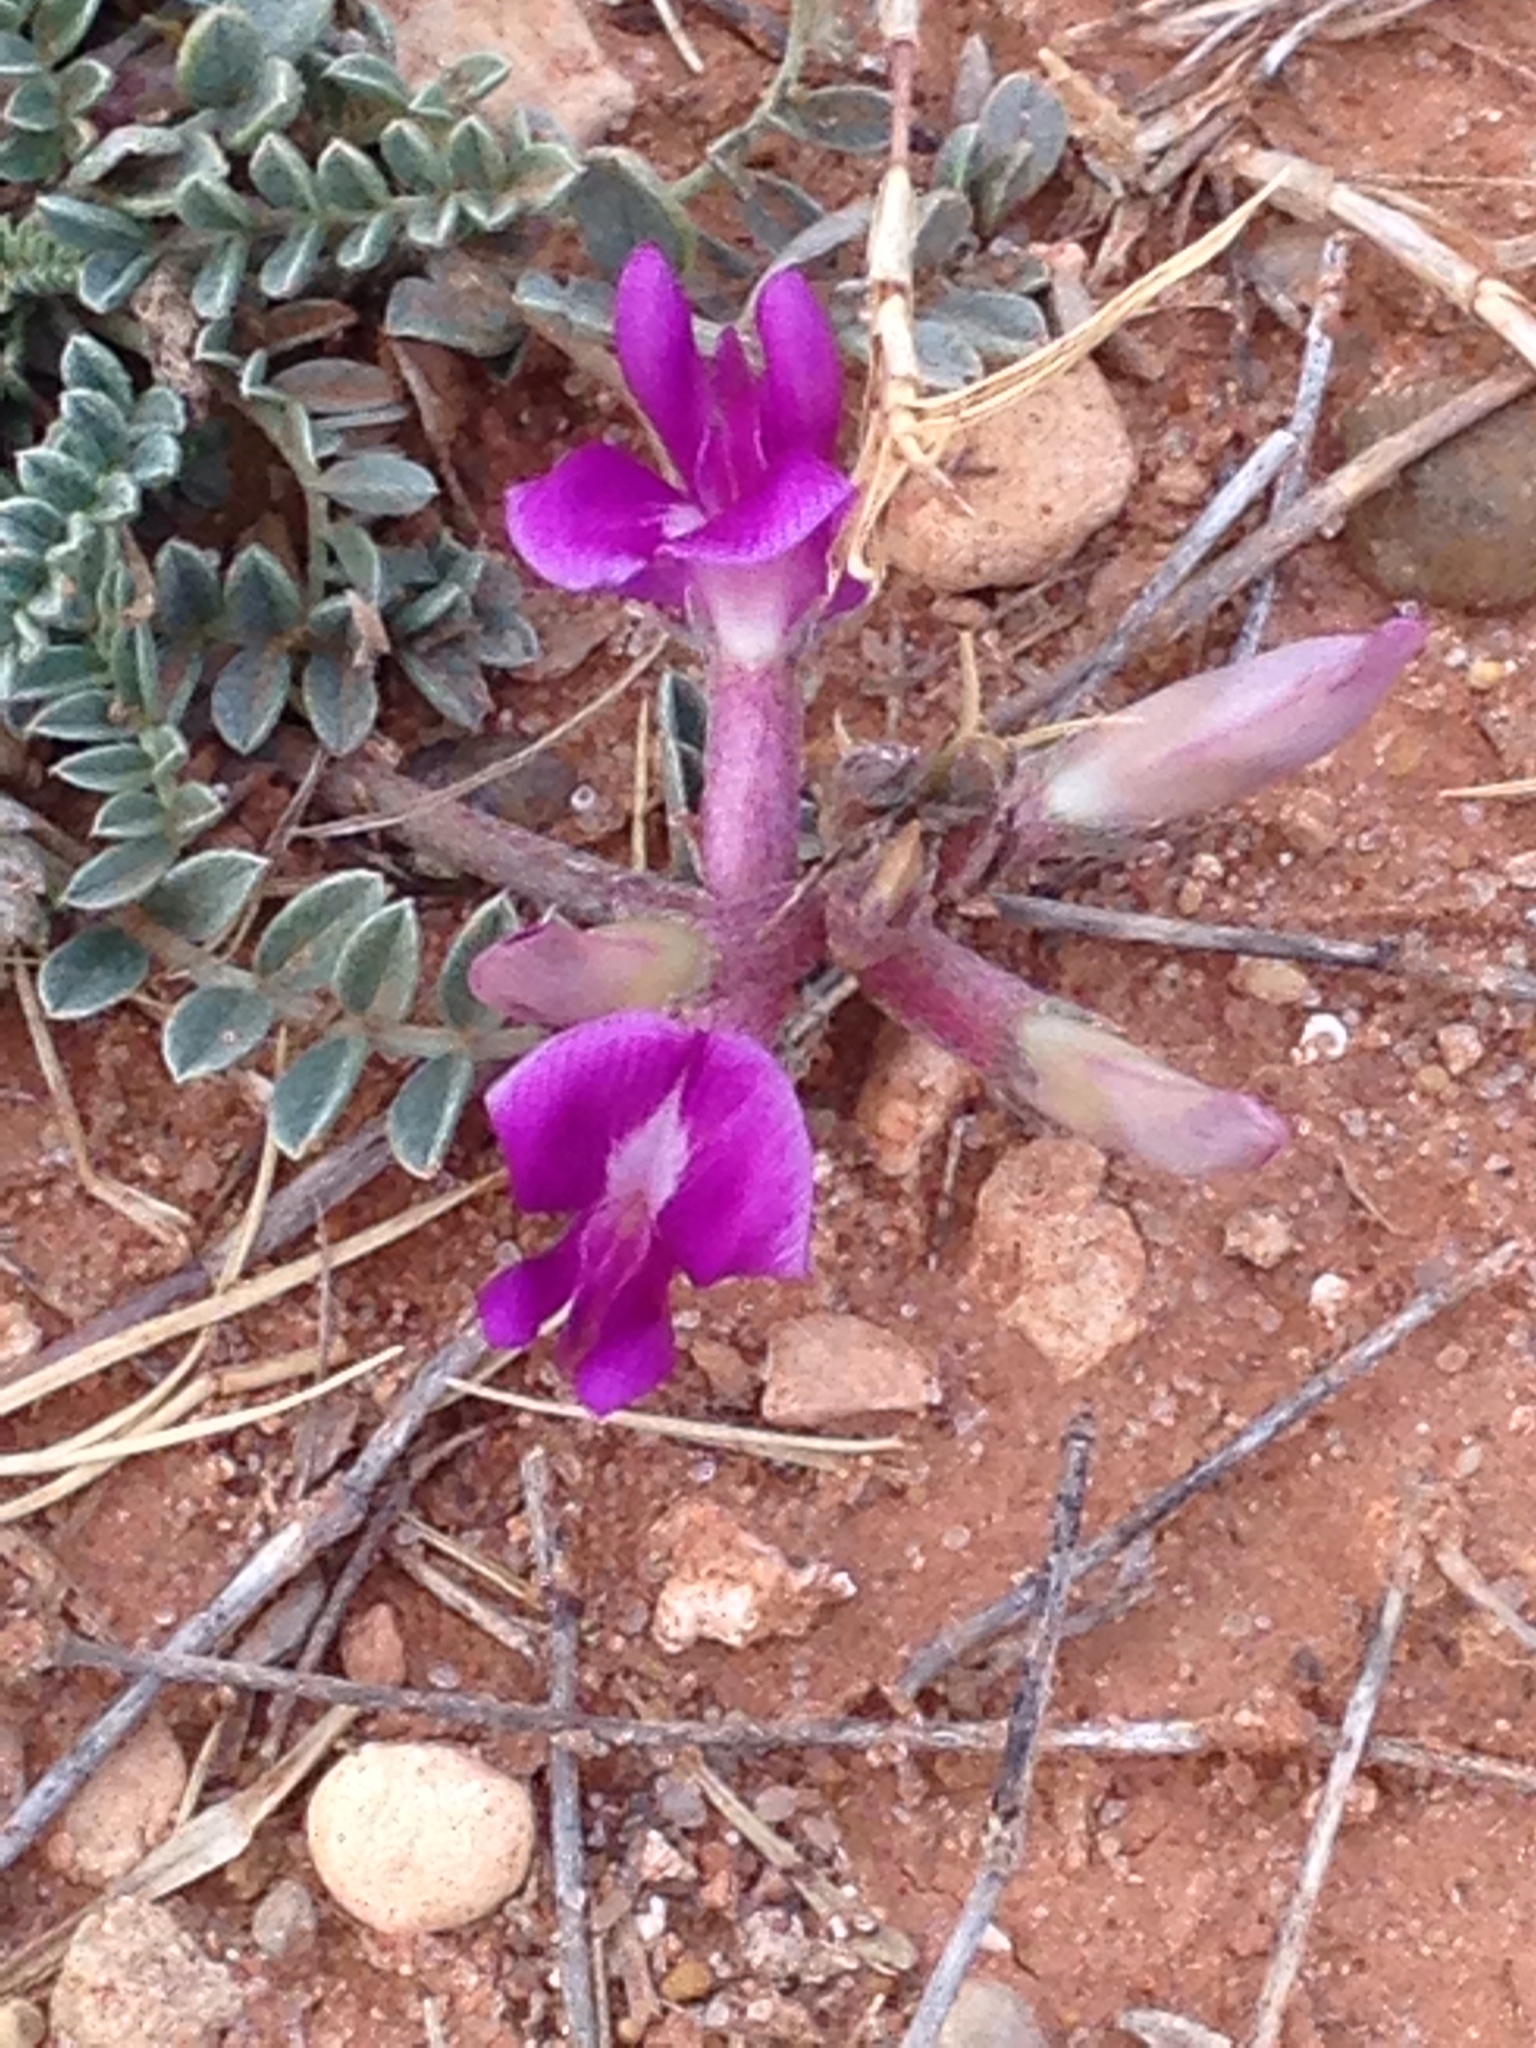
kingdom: Plantae
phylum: Tracheophyta
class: Magnoliopsida
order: Fabales
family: Fabaceae
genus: Astragalus
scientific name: Astragalus missouriensis
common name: Missouri milk-vetch
